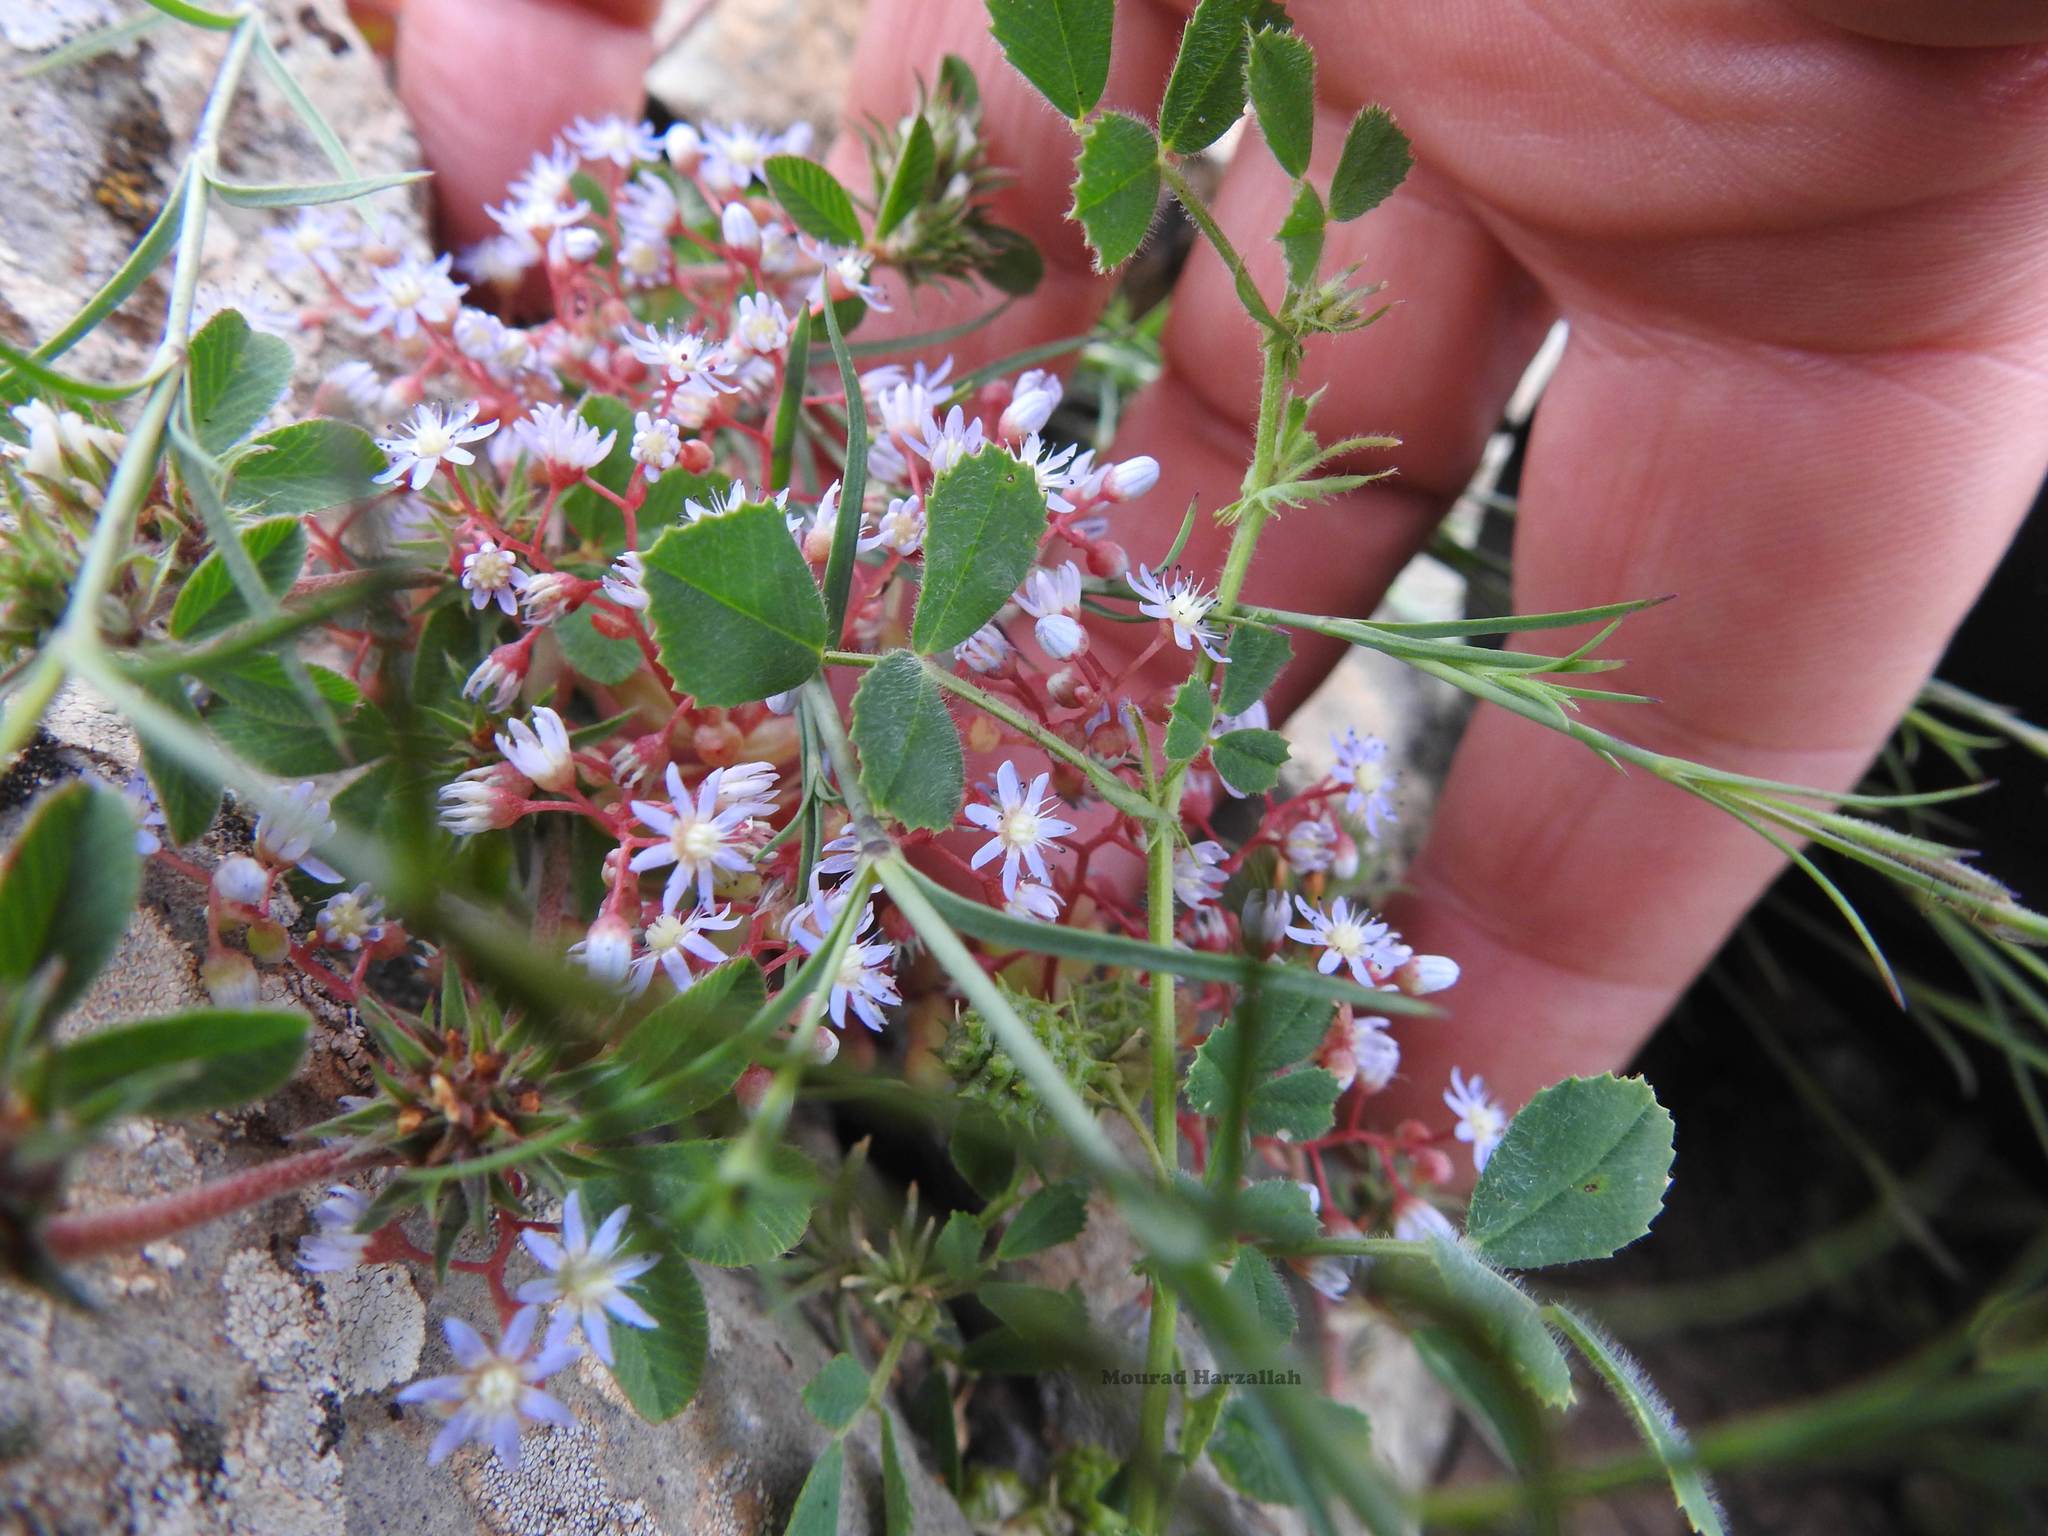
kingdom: Plantae
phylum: Tracheophyta
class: Magnoliopsida
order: Saxifragales
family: Crassulaceae
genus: Sedum
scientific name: Sedum caeruleum
